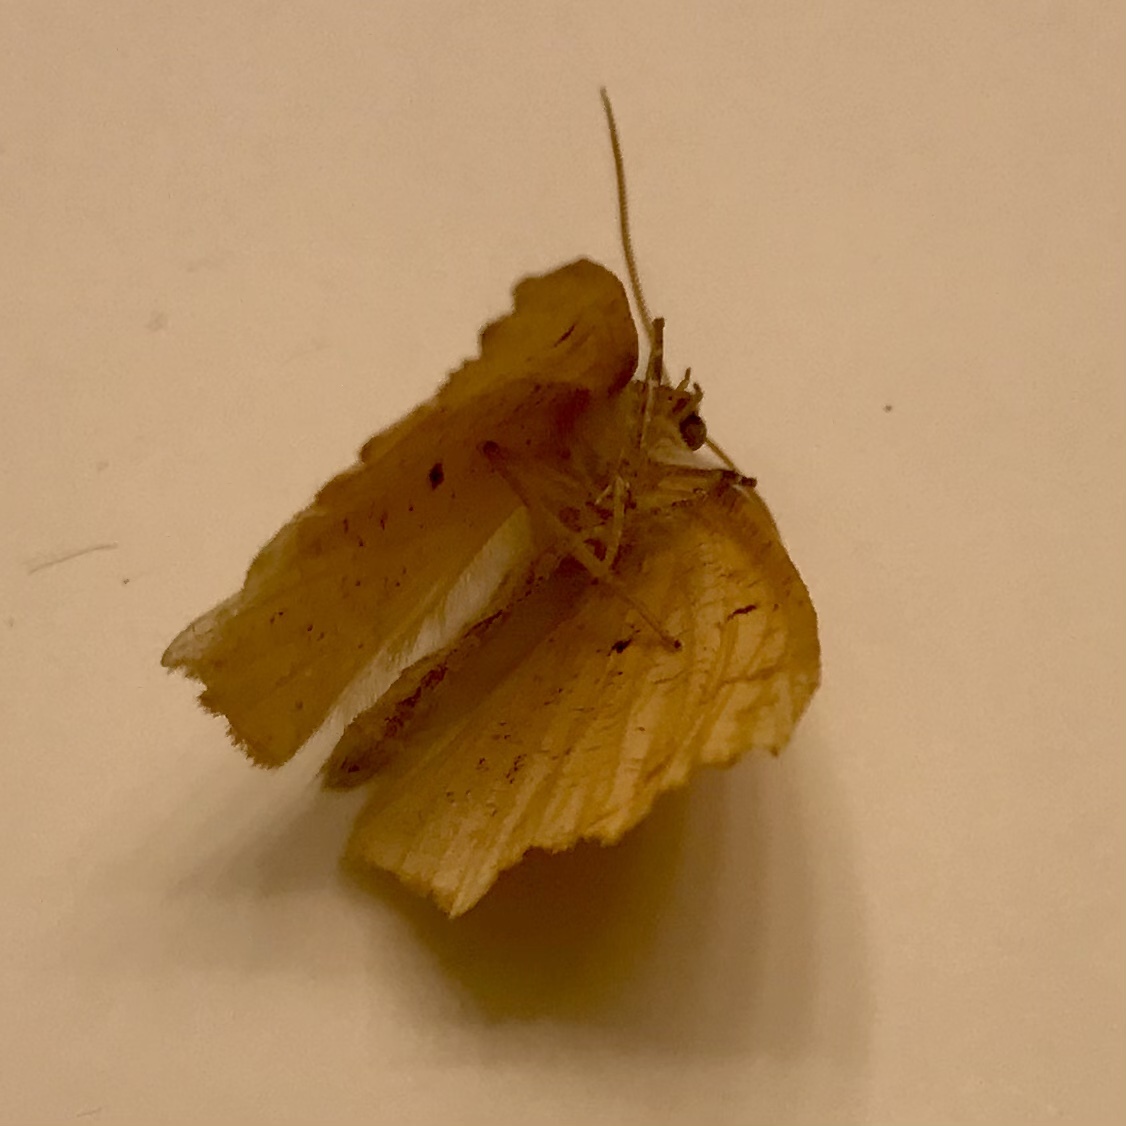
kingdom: Animalia
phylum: Arthropoda
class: Insecta
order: Lepidoptera
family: Geometridae
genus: Synaxis
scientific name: Synaxis jubararia
